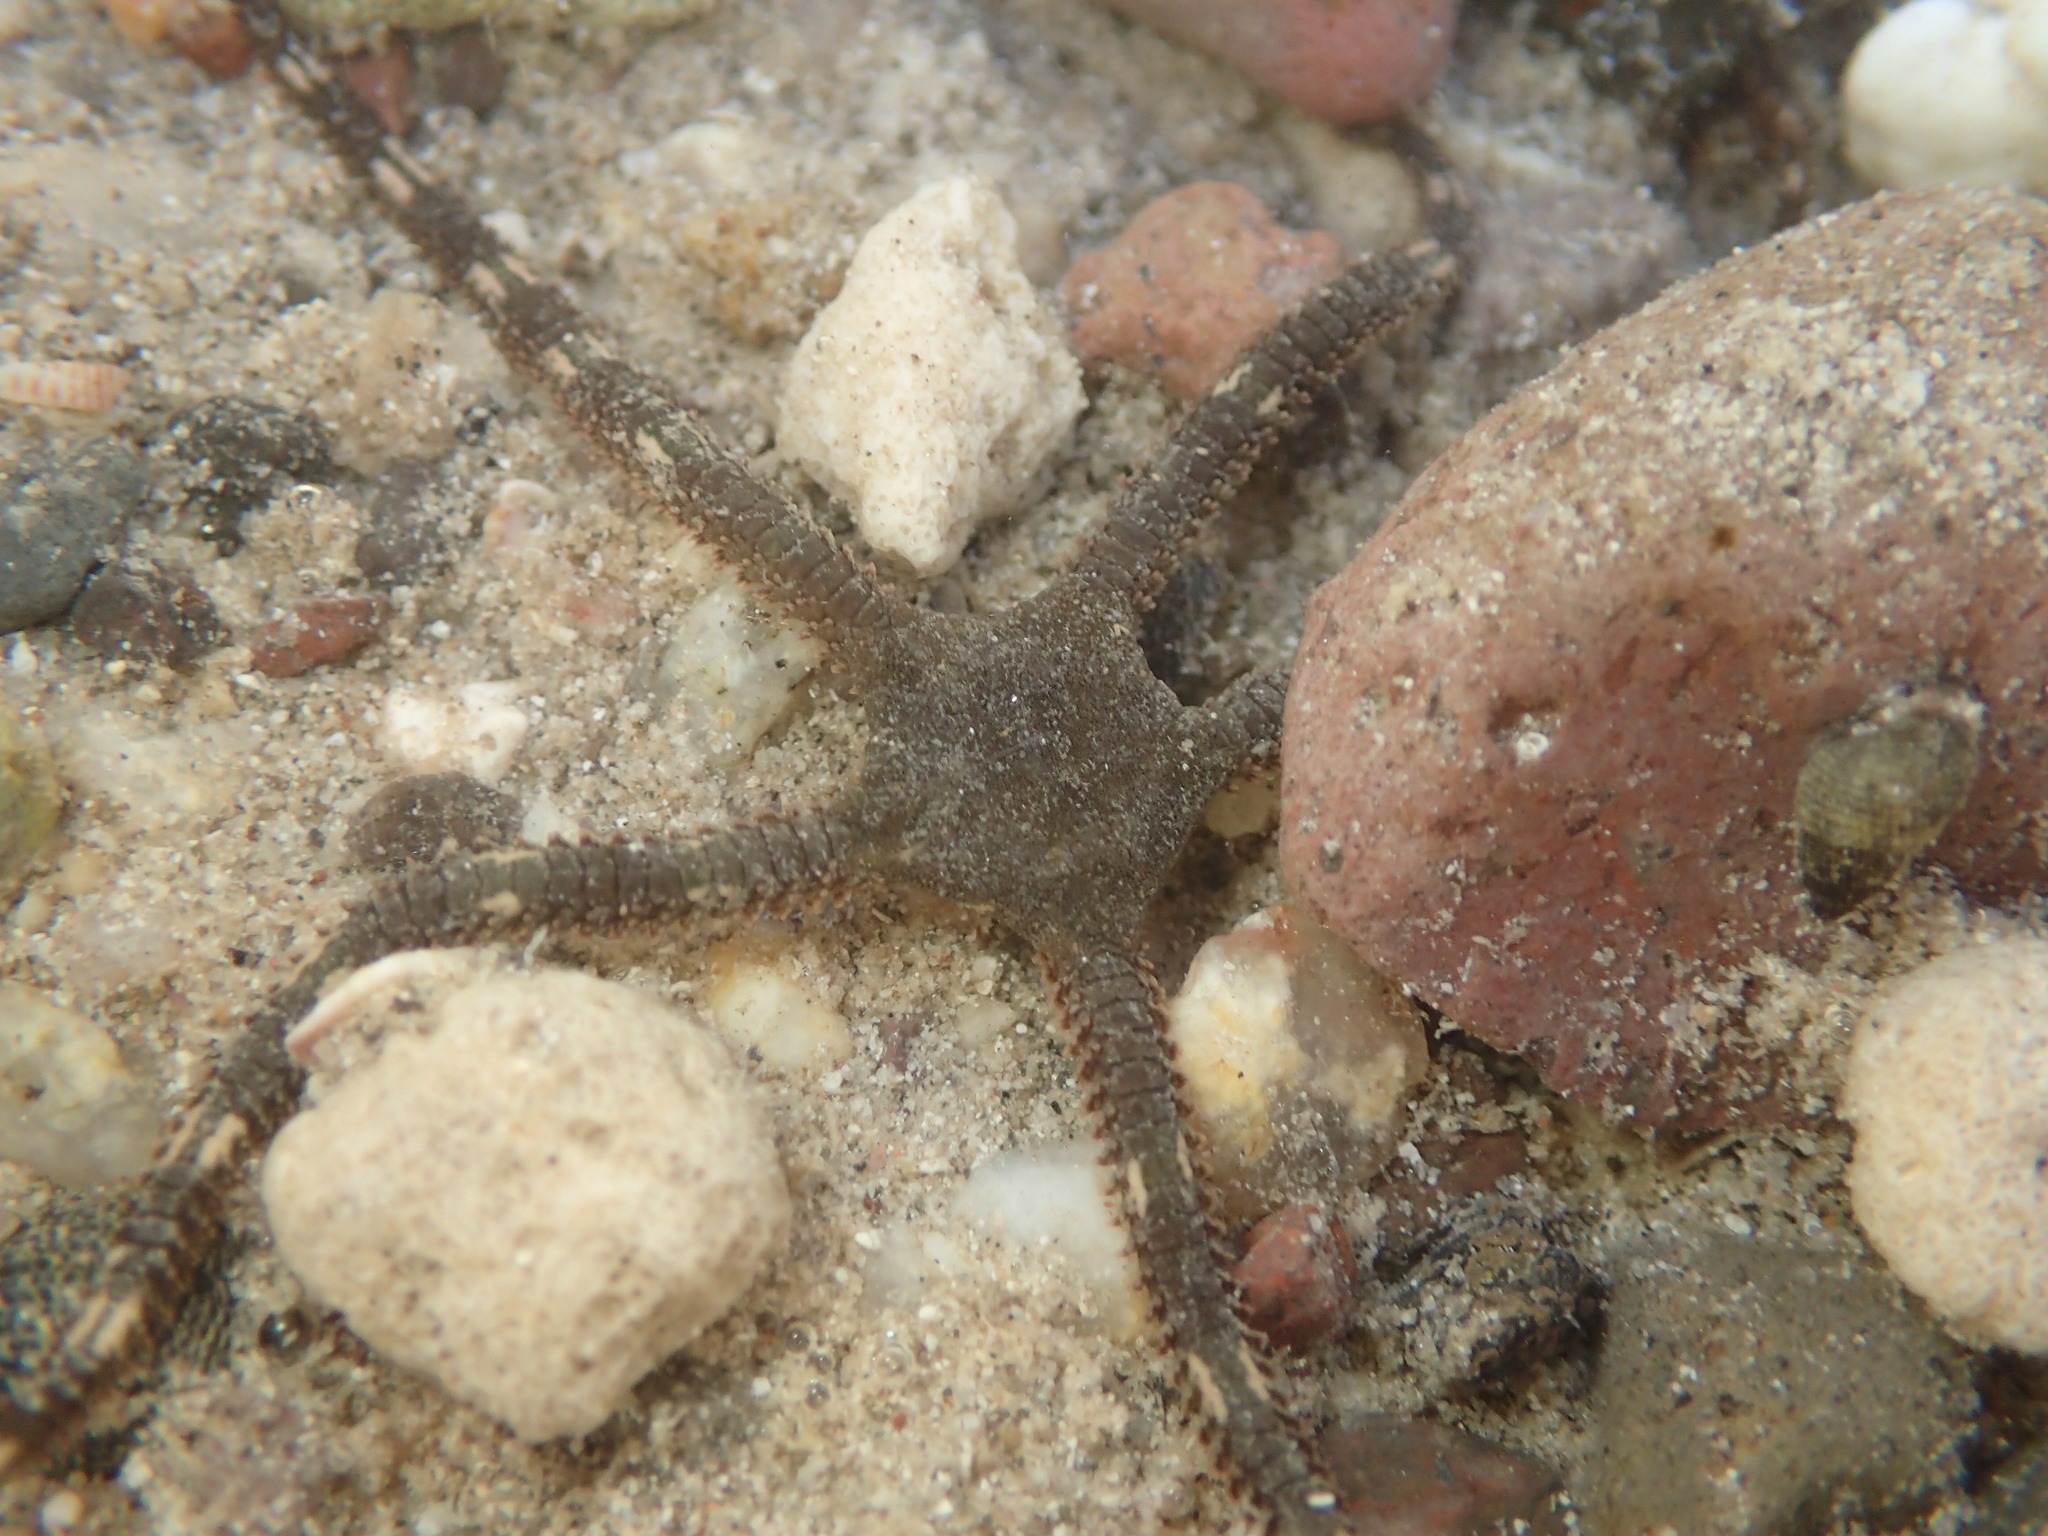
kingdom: Animalia
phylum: Echinodermata
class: Ophiuroidea
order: Ophiacanthida
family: Ophiodermatidae
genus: Ophioderma
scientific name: Ophioderma panamense
